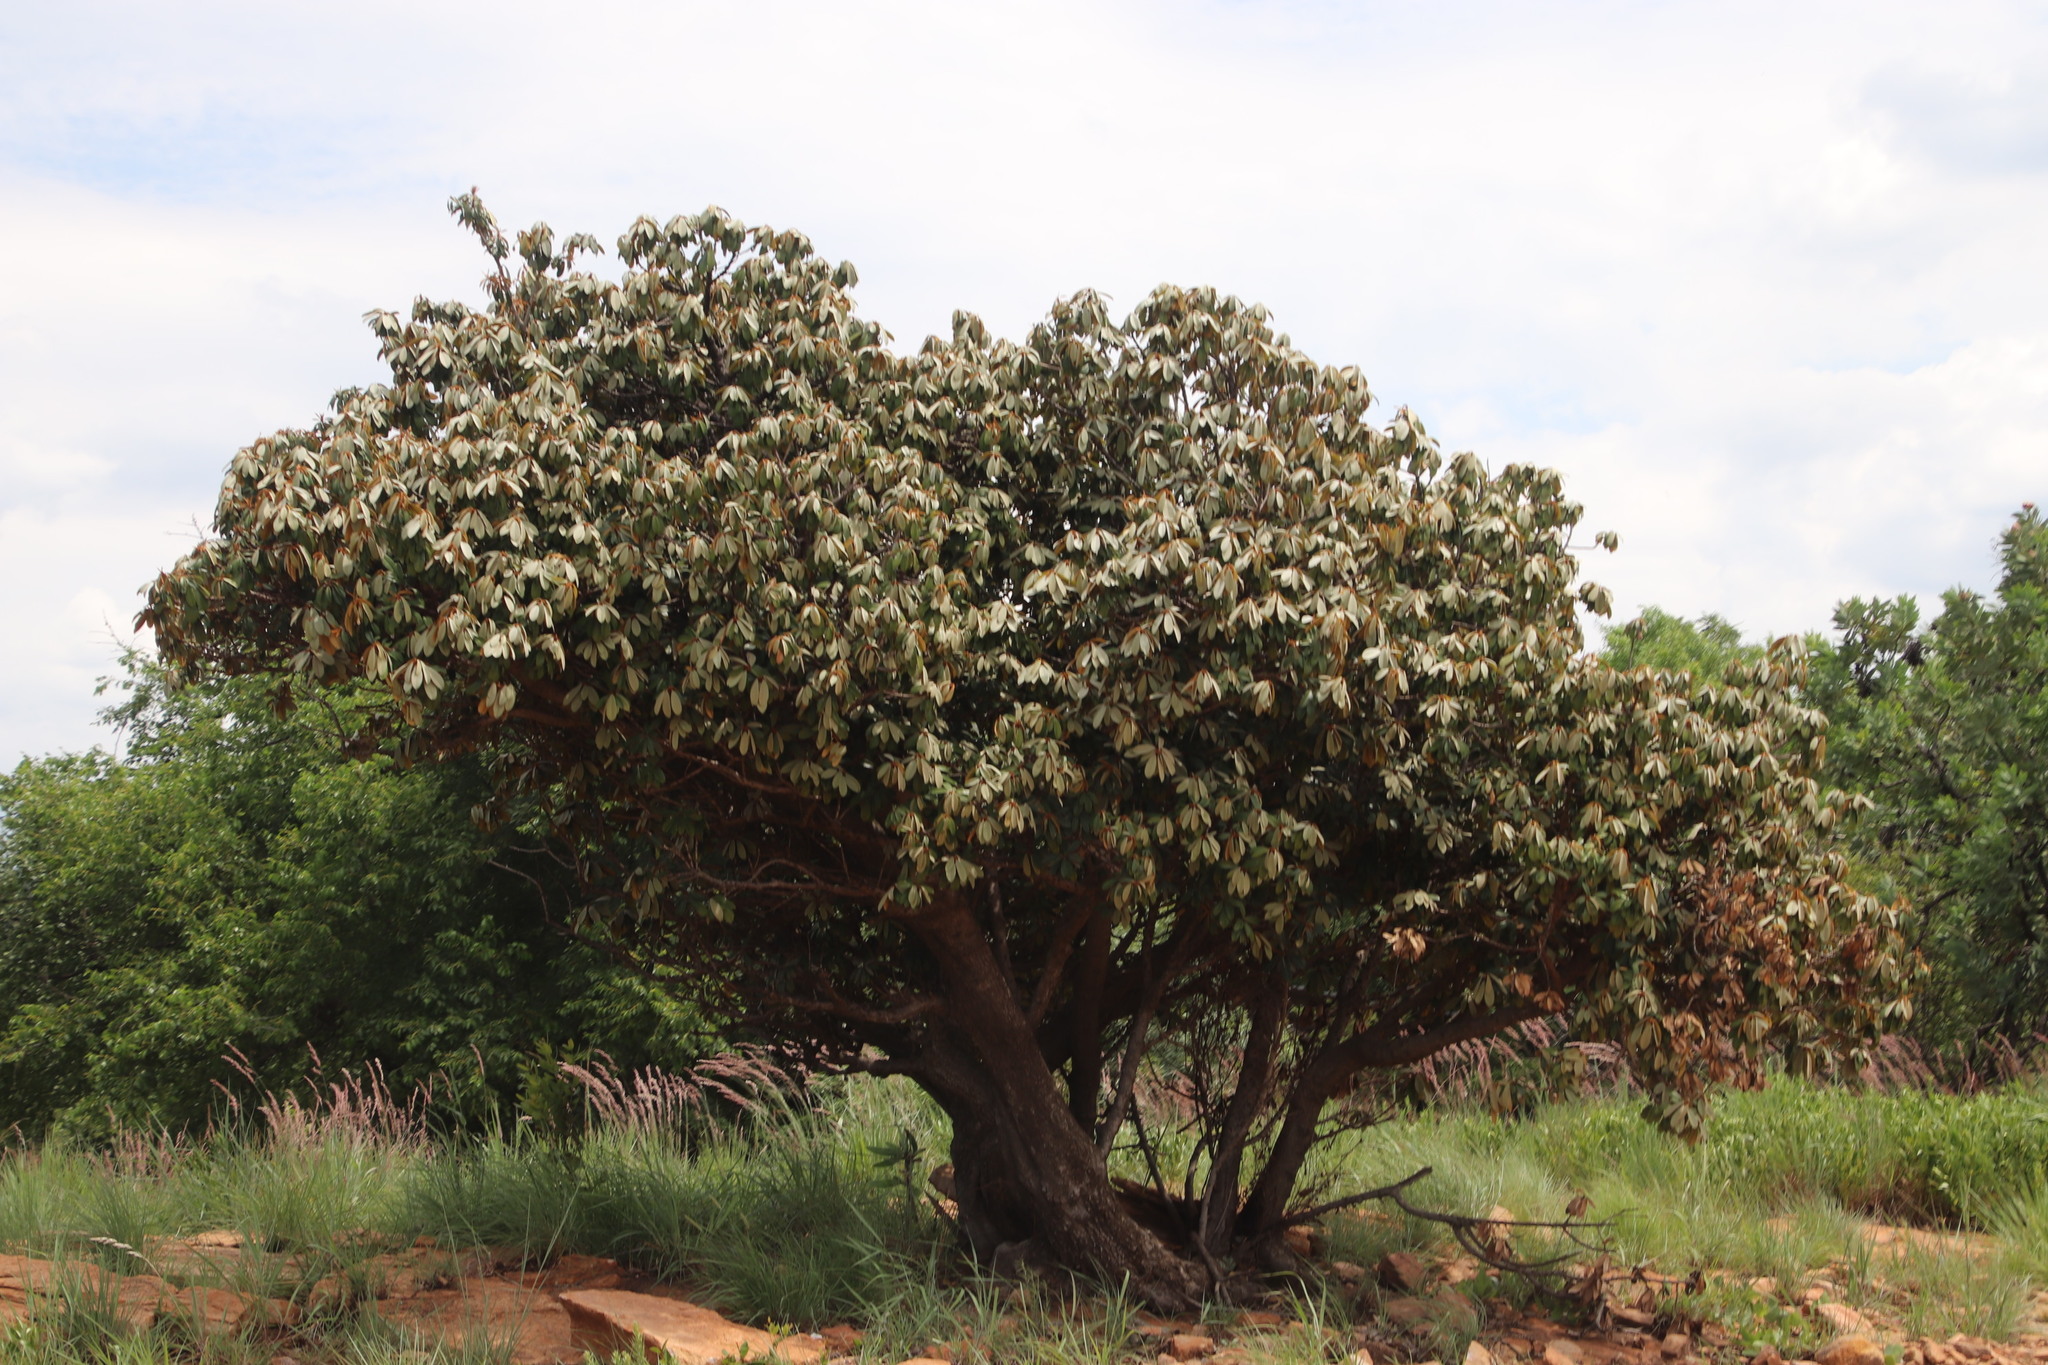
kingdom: Plantae
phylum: Tracheophyta
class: Magnoliopsida
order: Ericales
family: Sapotaceae
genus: Englerophytum
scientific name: Englerophytum magalismontanum
